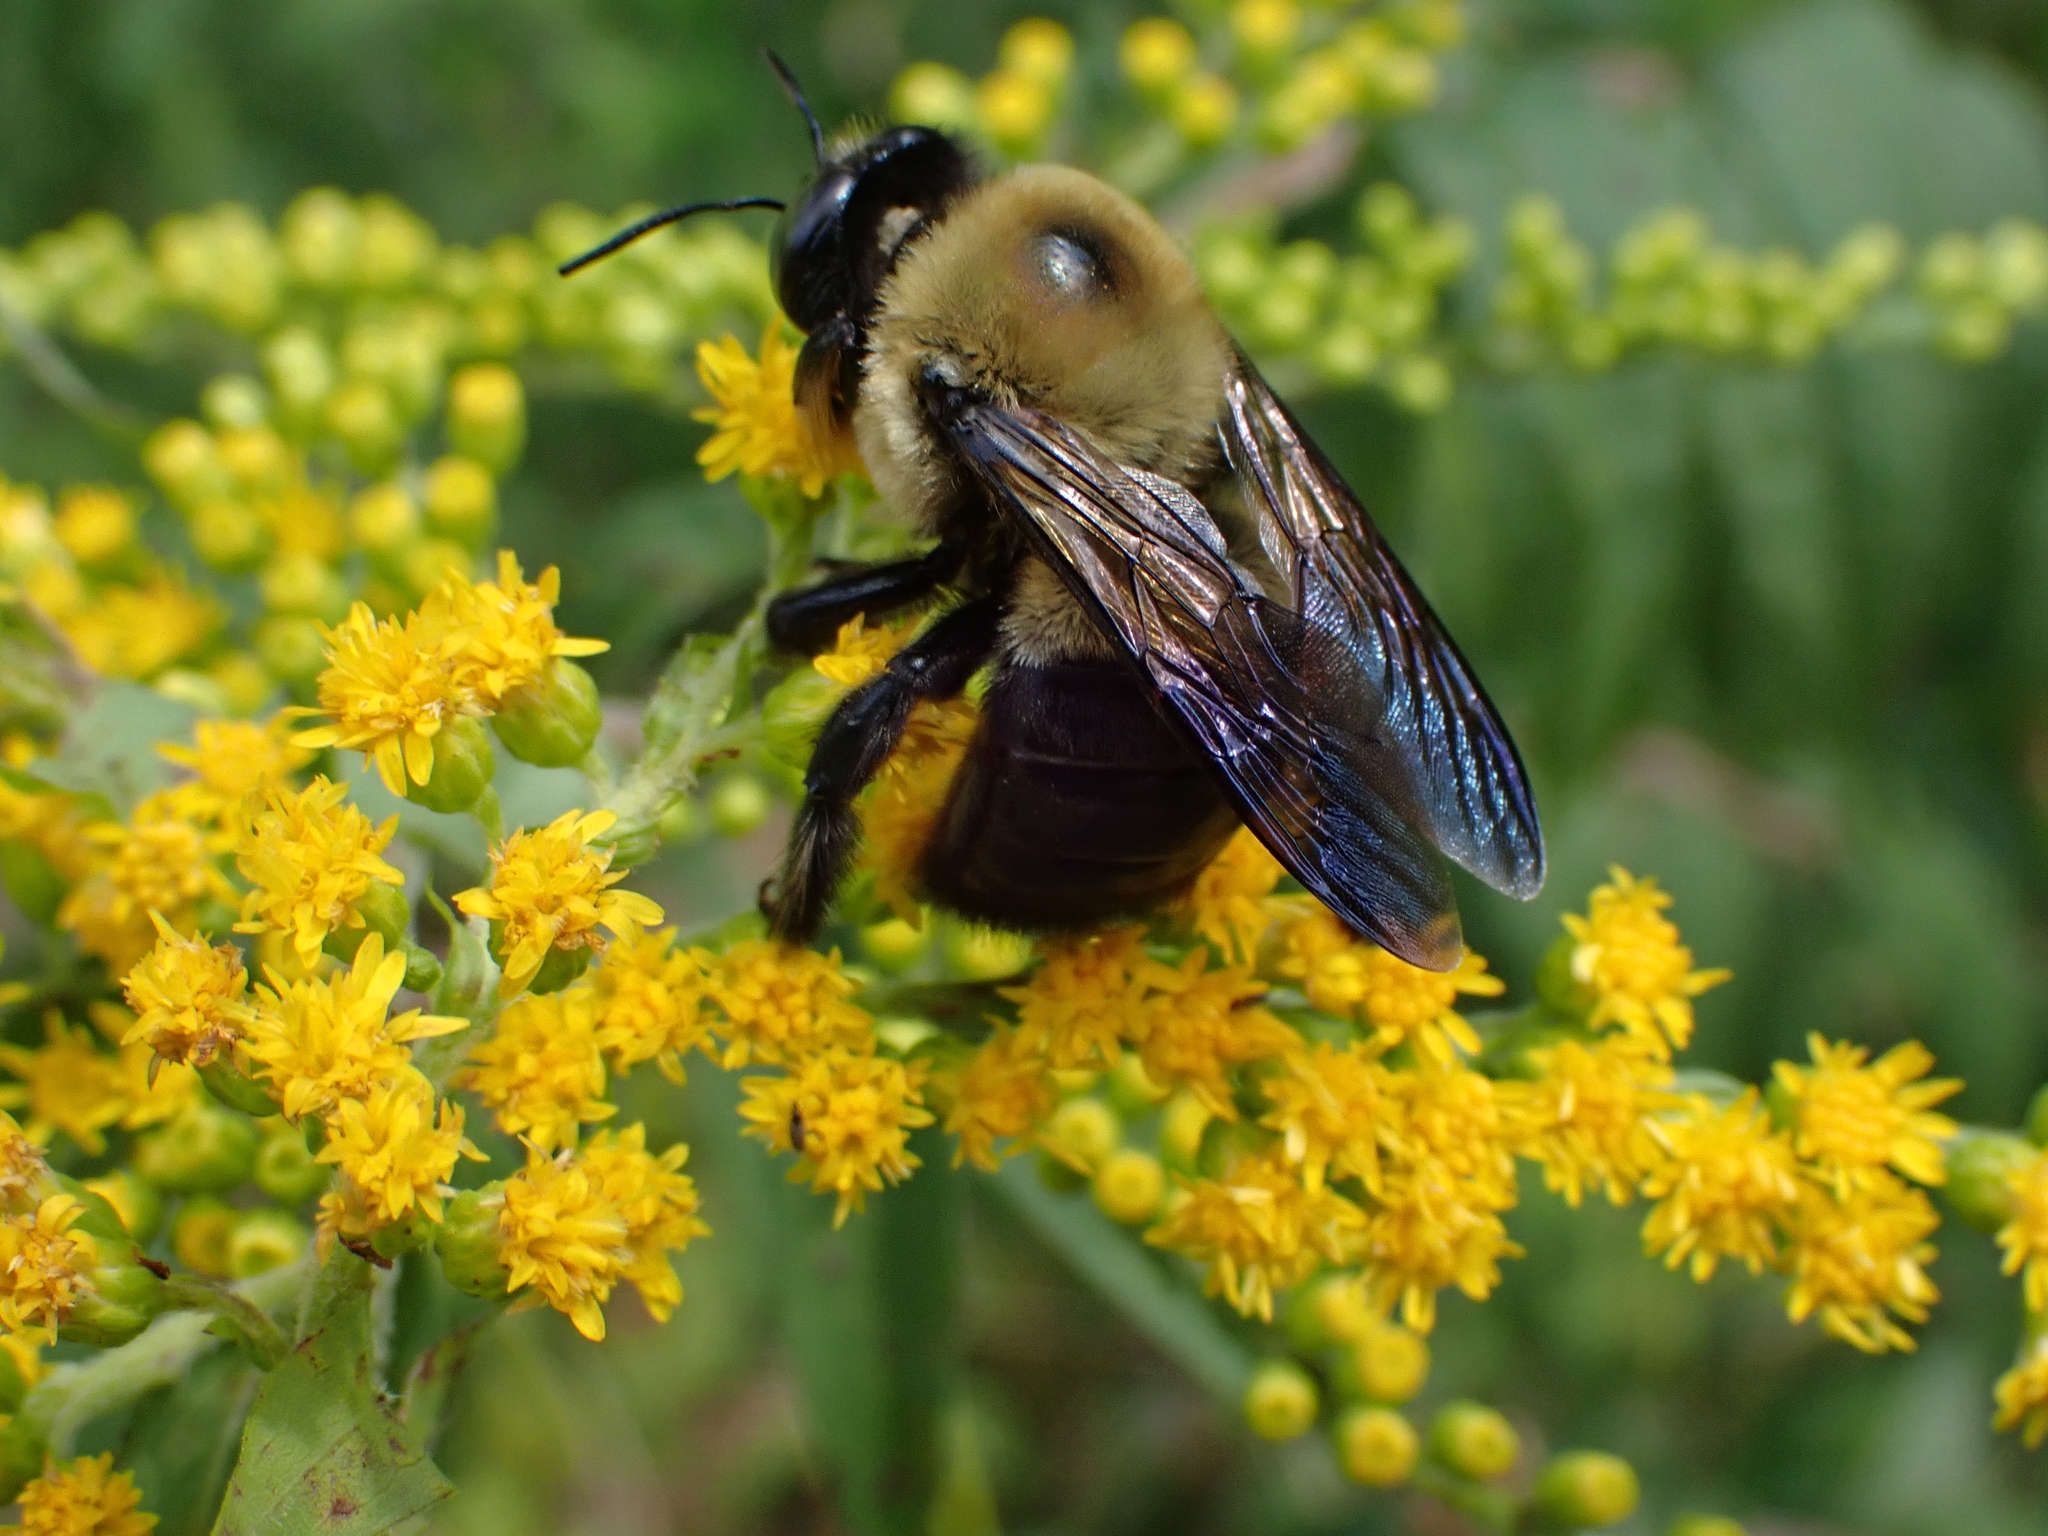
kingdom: Animalia
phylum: Arthropoda
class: Insecta
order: Hymenoptera
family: Apidae
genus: Xylocopa
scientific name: Xylocopa virginica
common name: Carpenter bee
